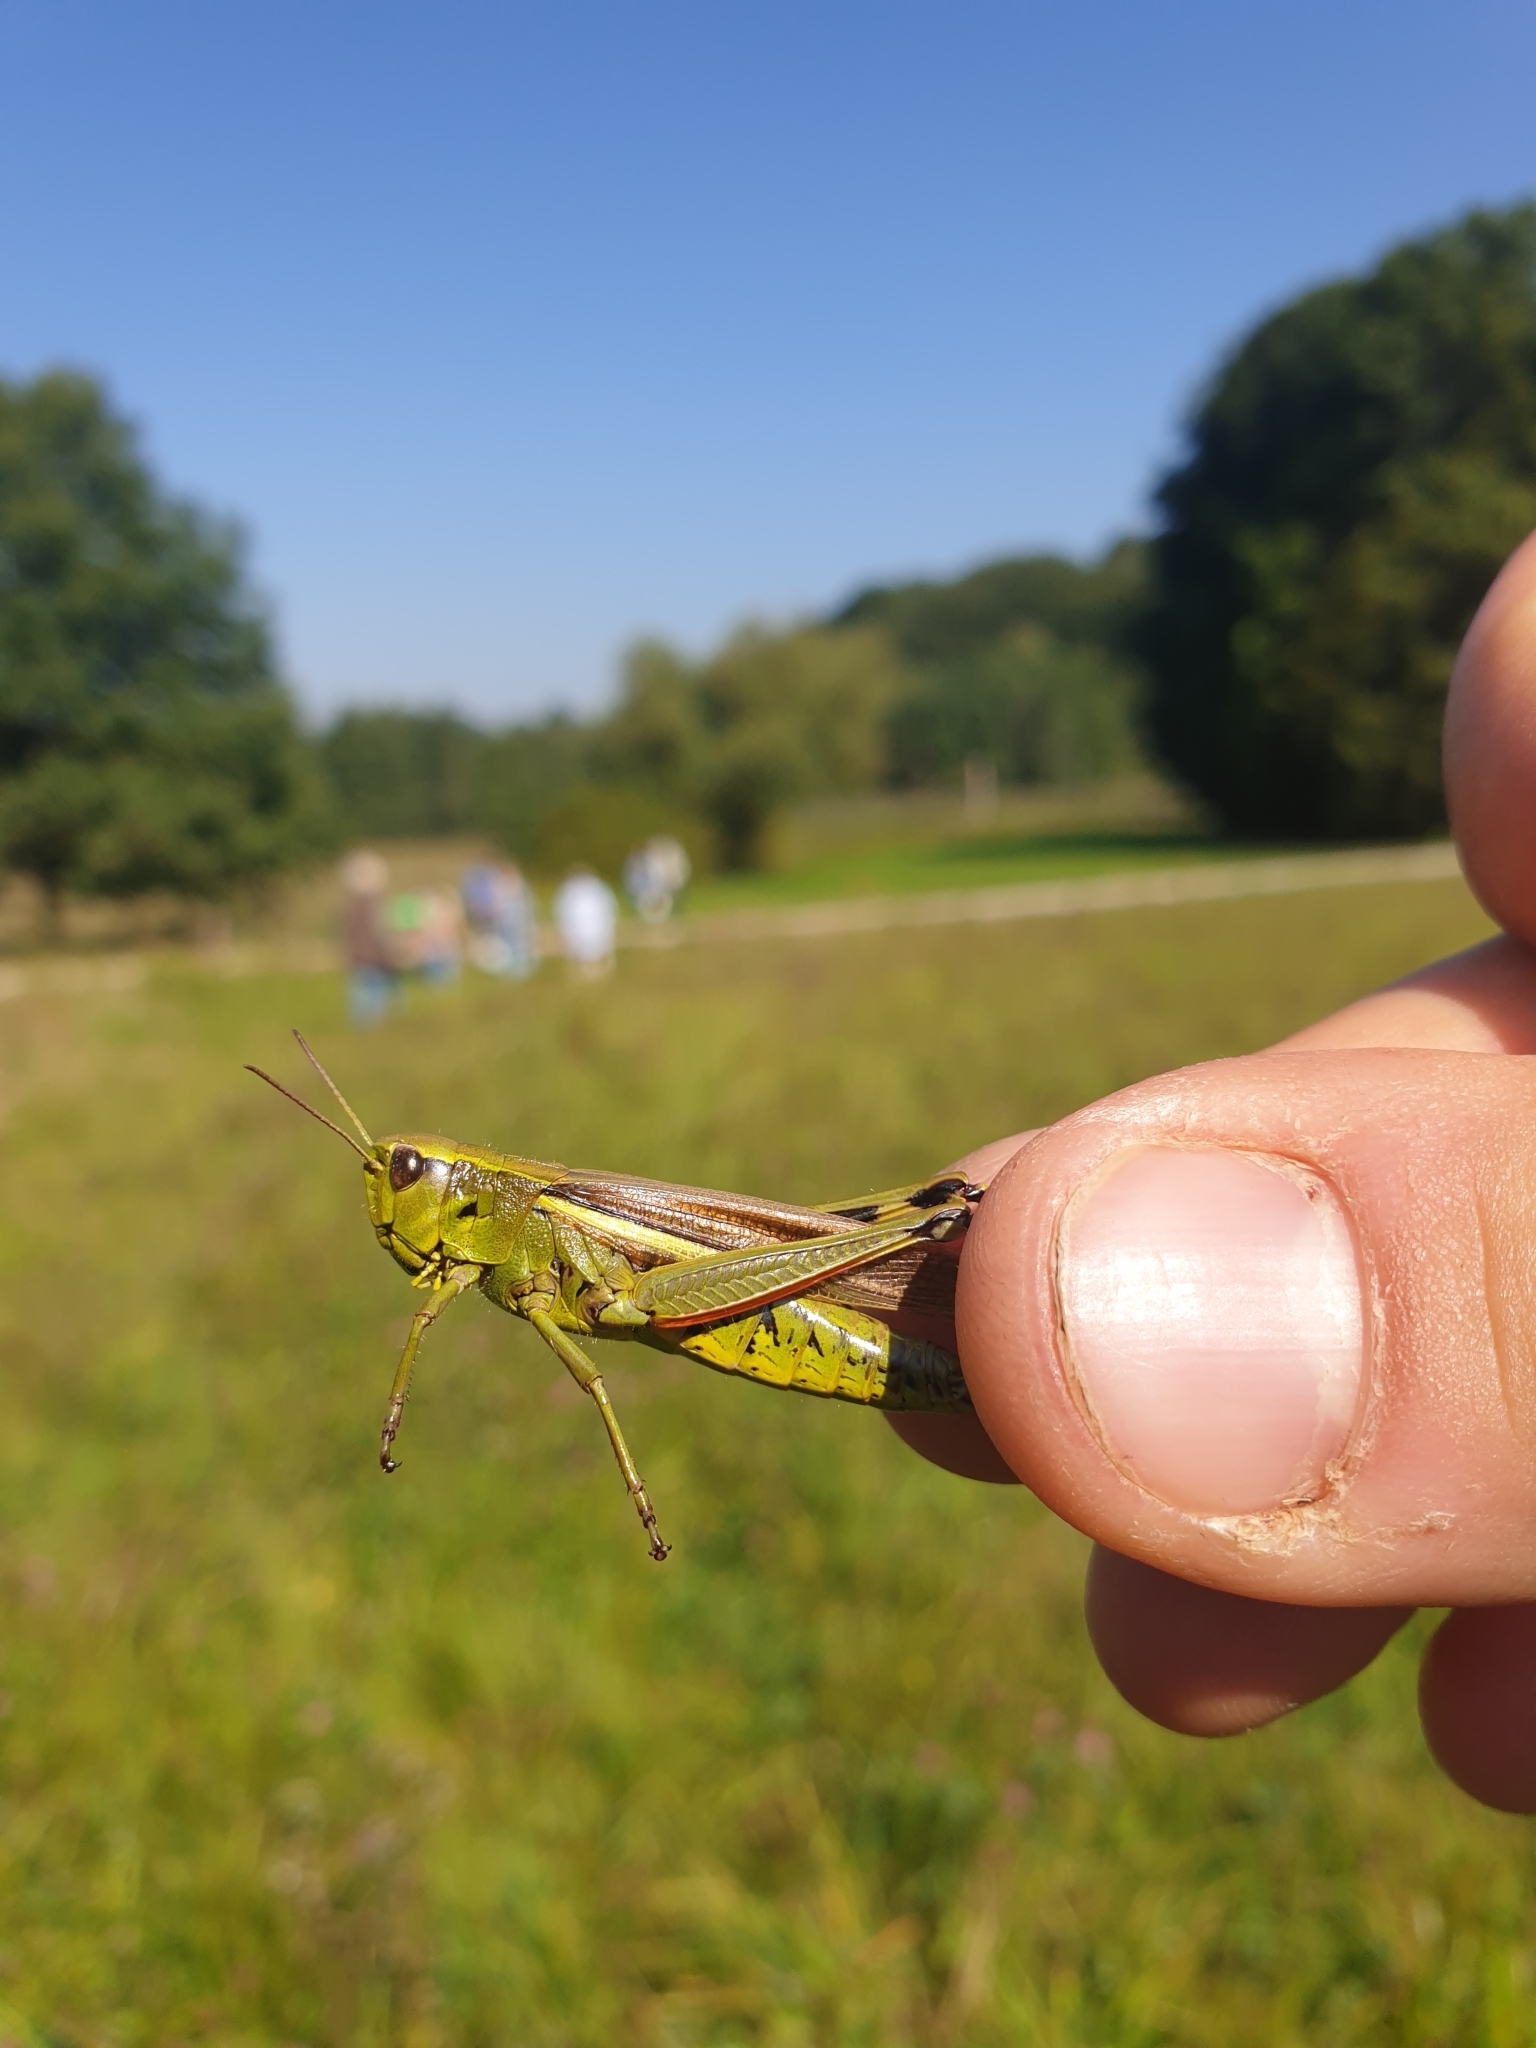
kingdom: Animalia
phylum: Arthropoda
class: Insecta
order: Orthoptera
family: Acrididae
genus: Stethophyma
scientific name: Stethophyma grossum
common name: Large marsh grasshopper
